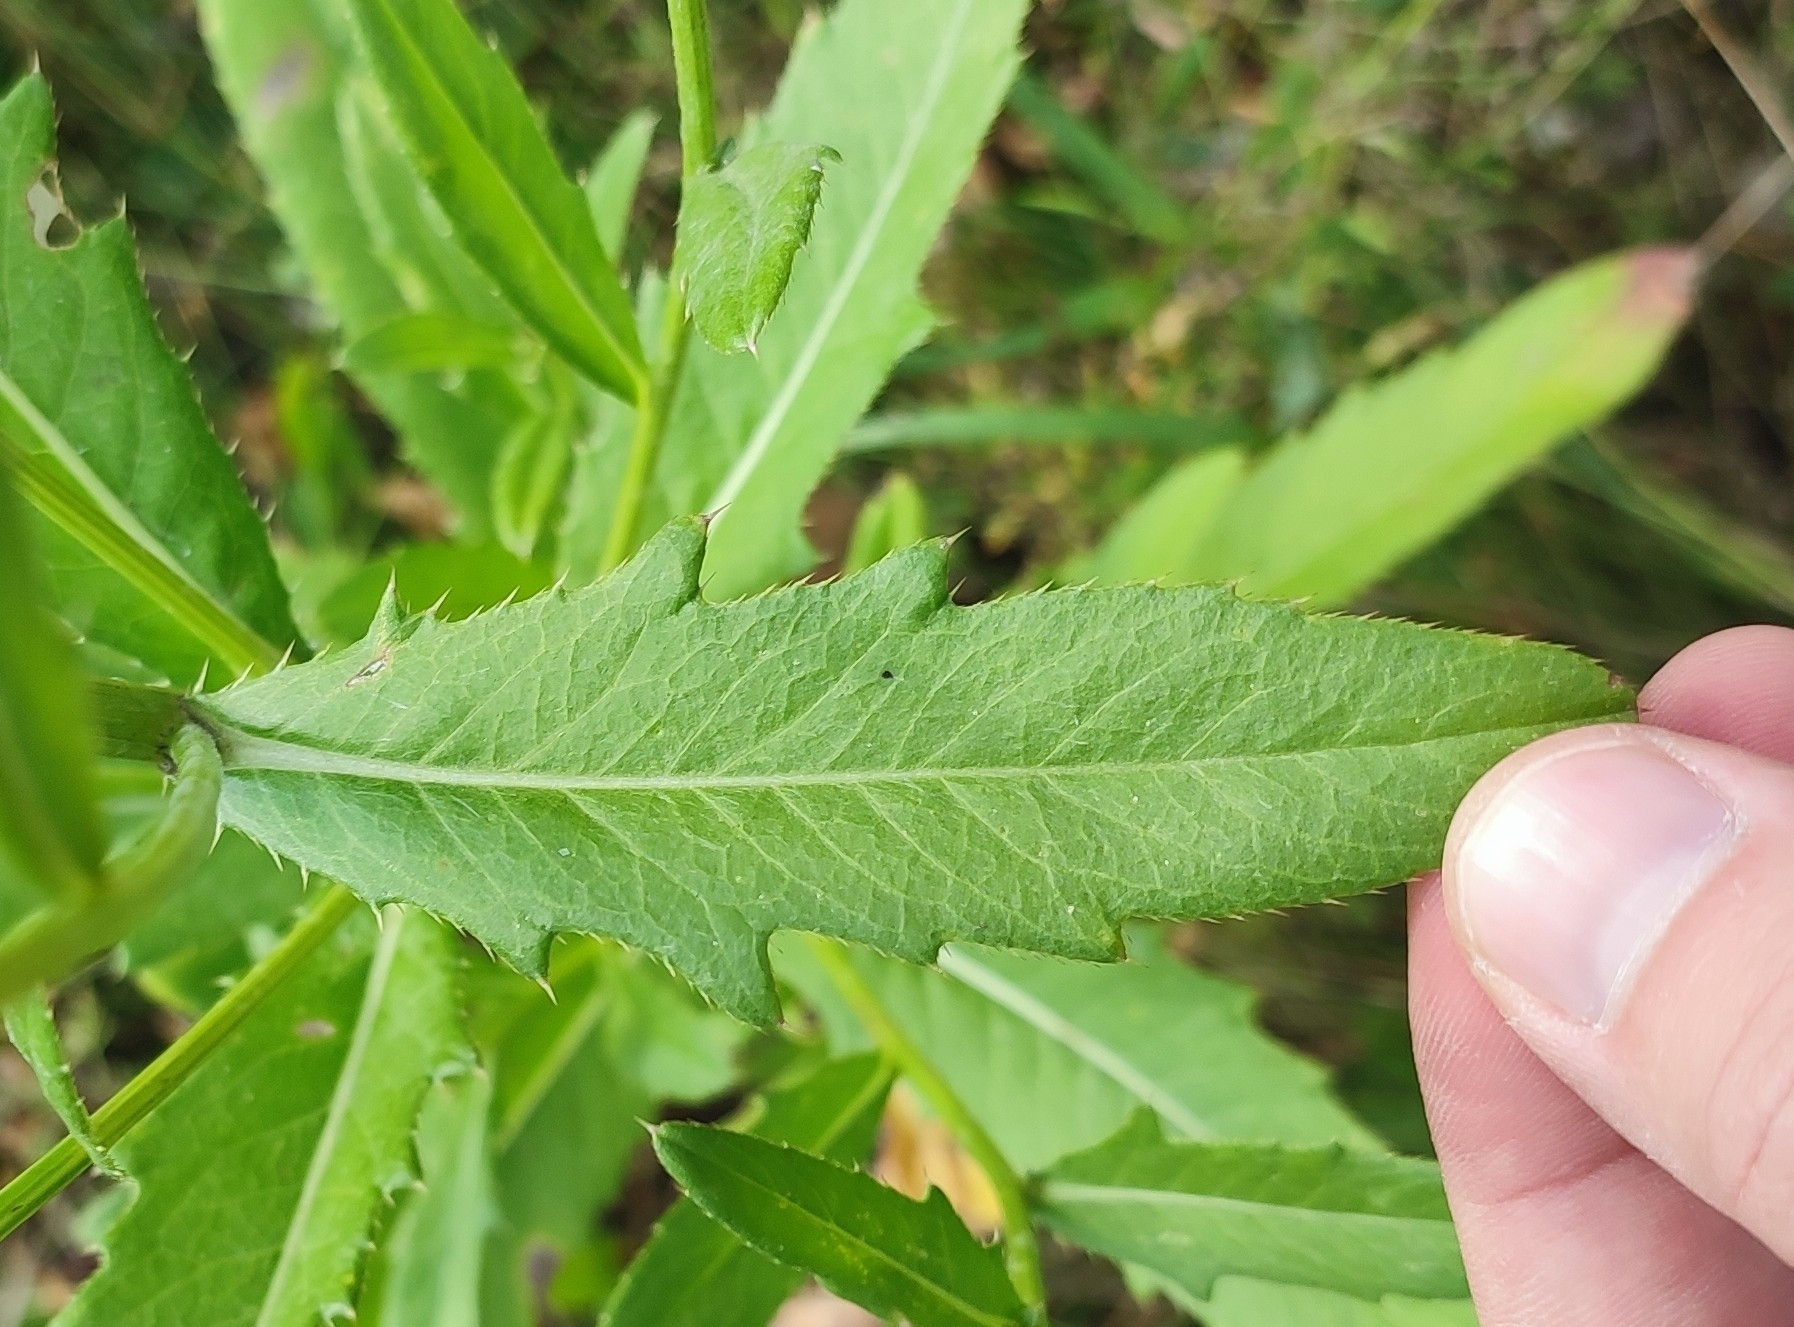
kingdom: Plantae
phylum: Tracheophyta
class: Magnoliopsida
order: Asterales
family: Asteraceae
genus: Cirsium
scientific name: Cirsium arvense
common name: Creeping thistle
